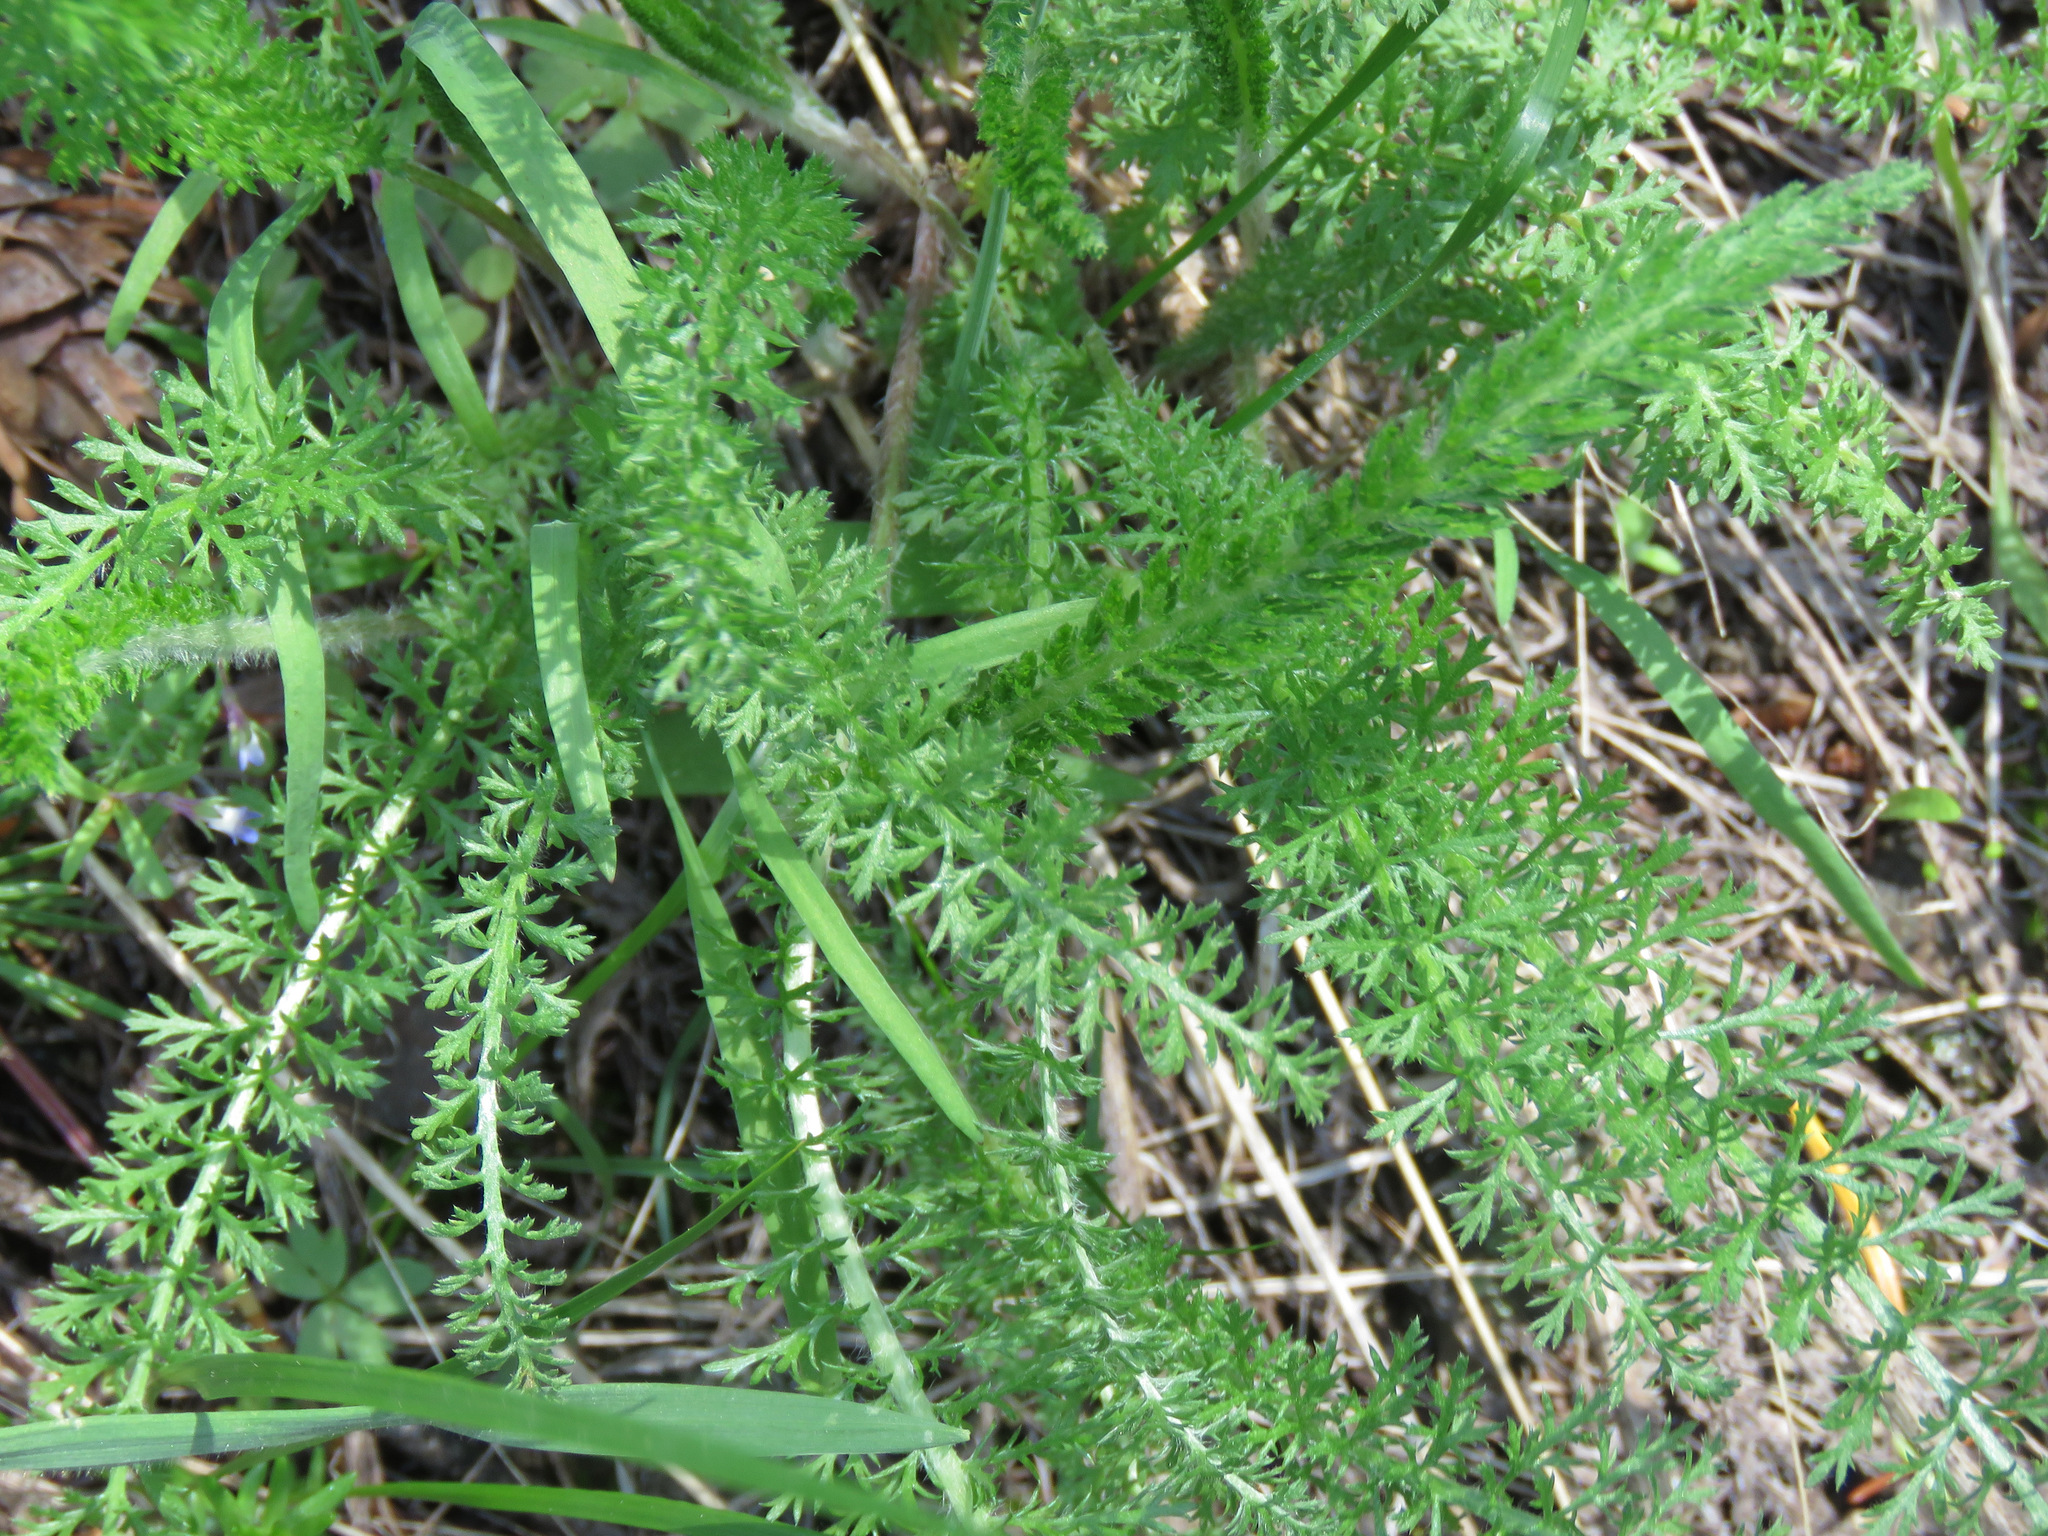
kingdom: Plantae
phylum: Tracheophyta
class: Magnoliopsida
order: Asterales
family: Asteraceae
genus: Achillea
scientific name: Achillea millefolium
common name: Yarrow
